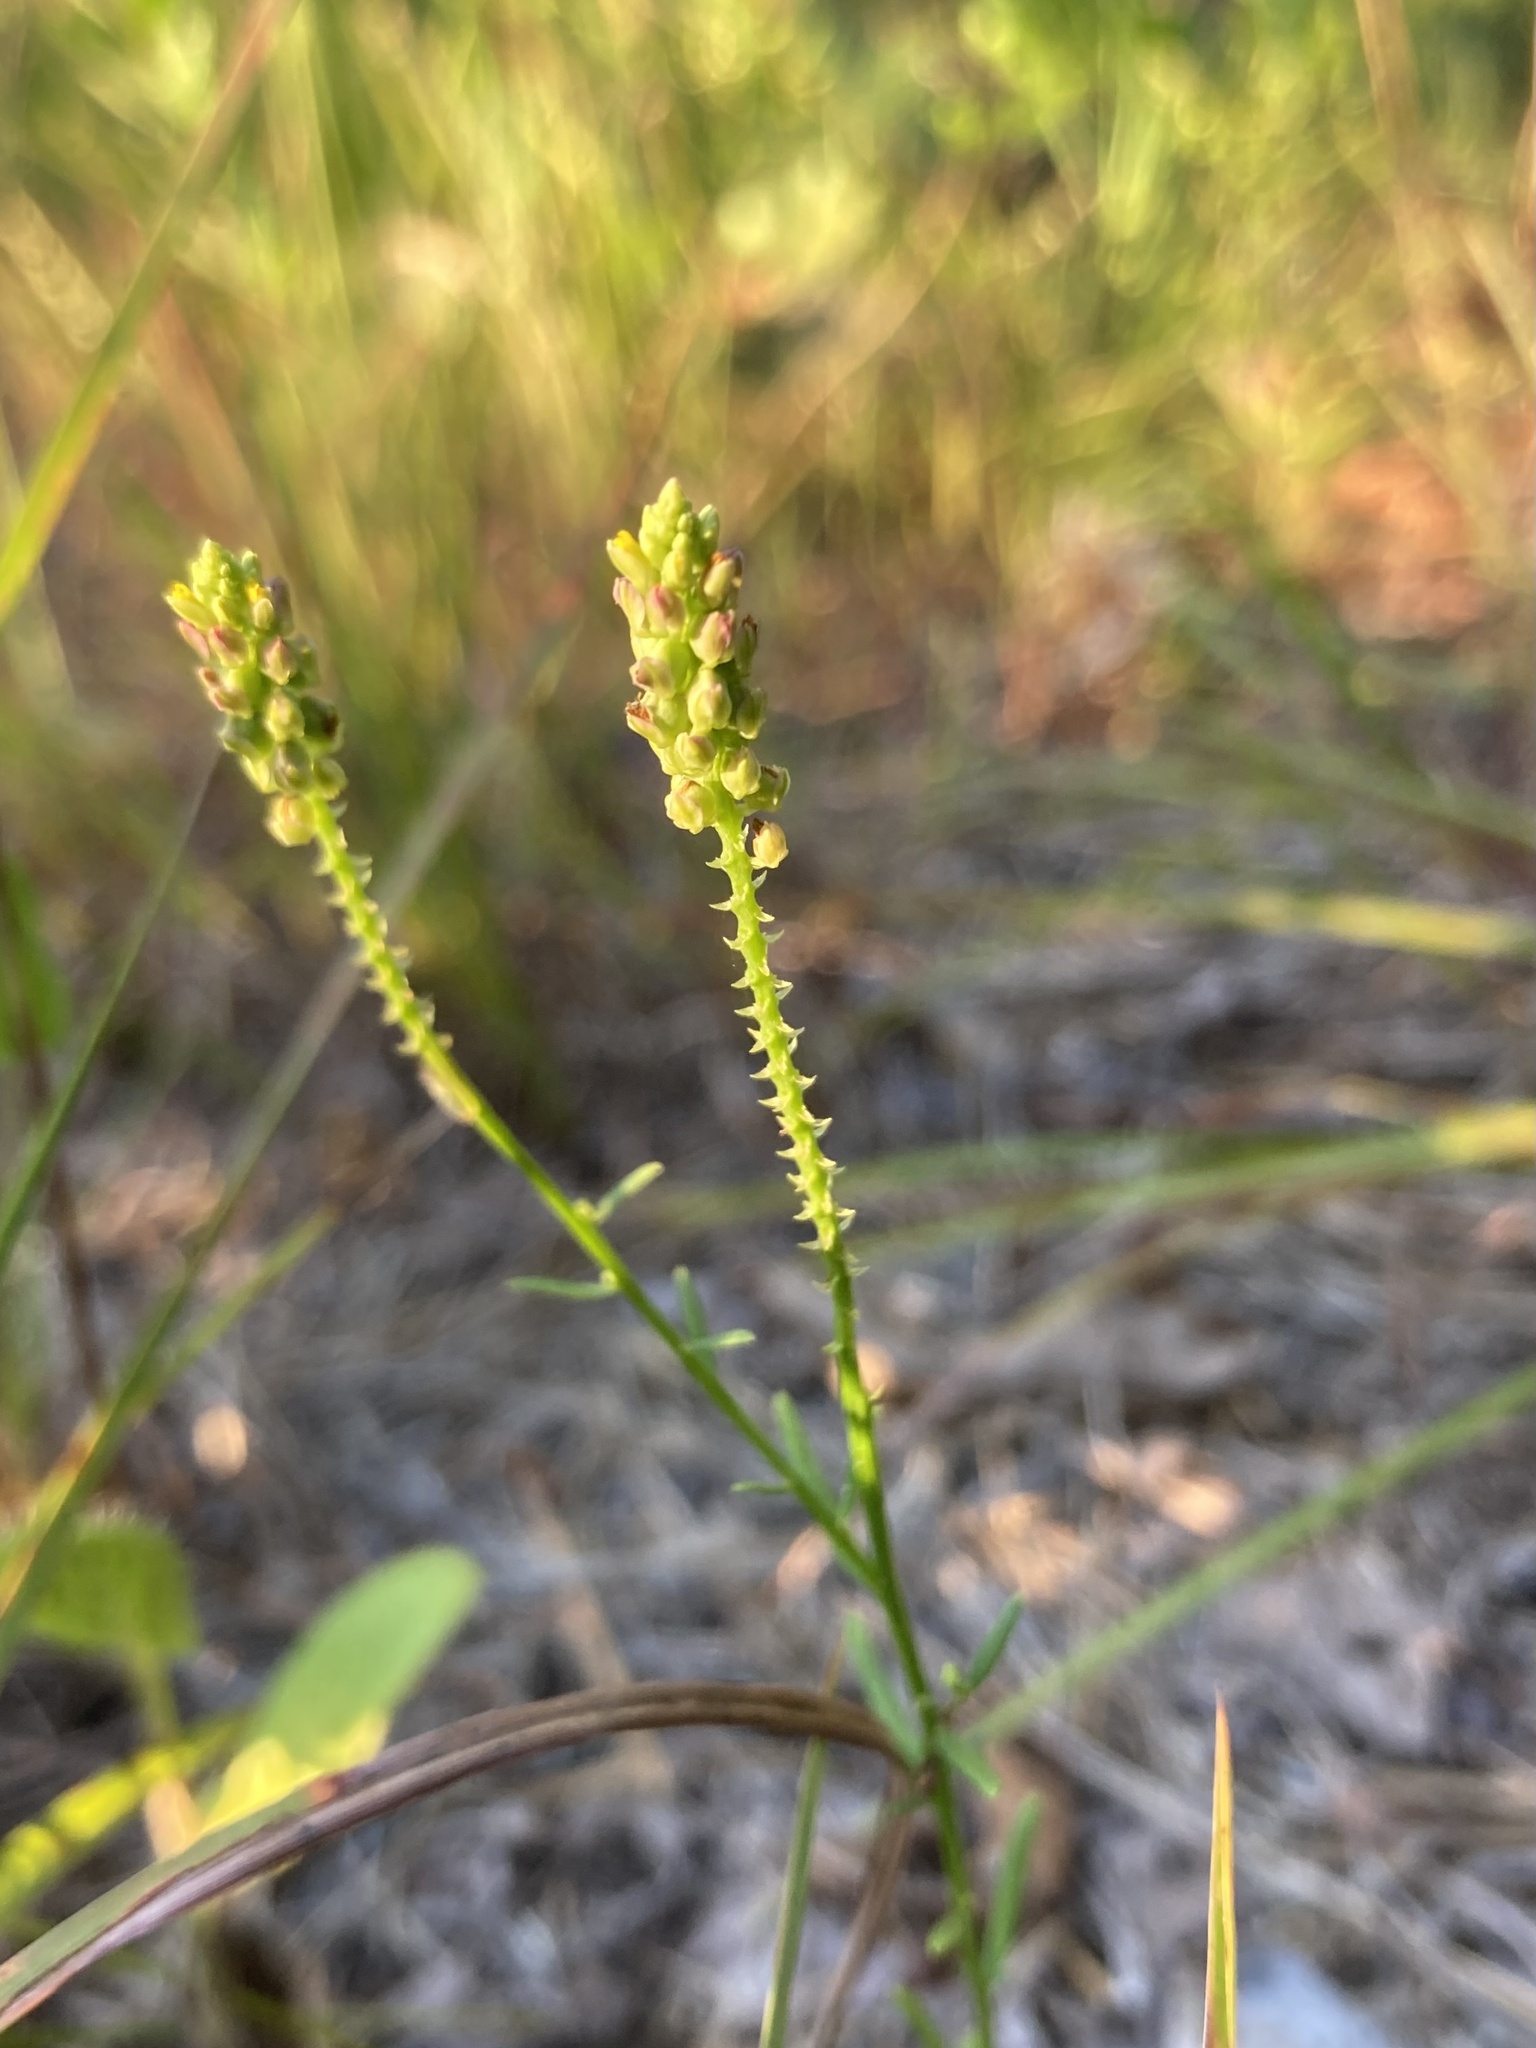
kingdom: Plantae
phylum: Tracheophyta
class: Magnoliopsida
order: Fabales
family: Polygalaceae
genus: Polygala
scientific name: Polygala nuttallii
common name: Nuttall's milkwort
